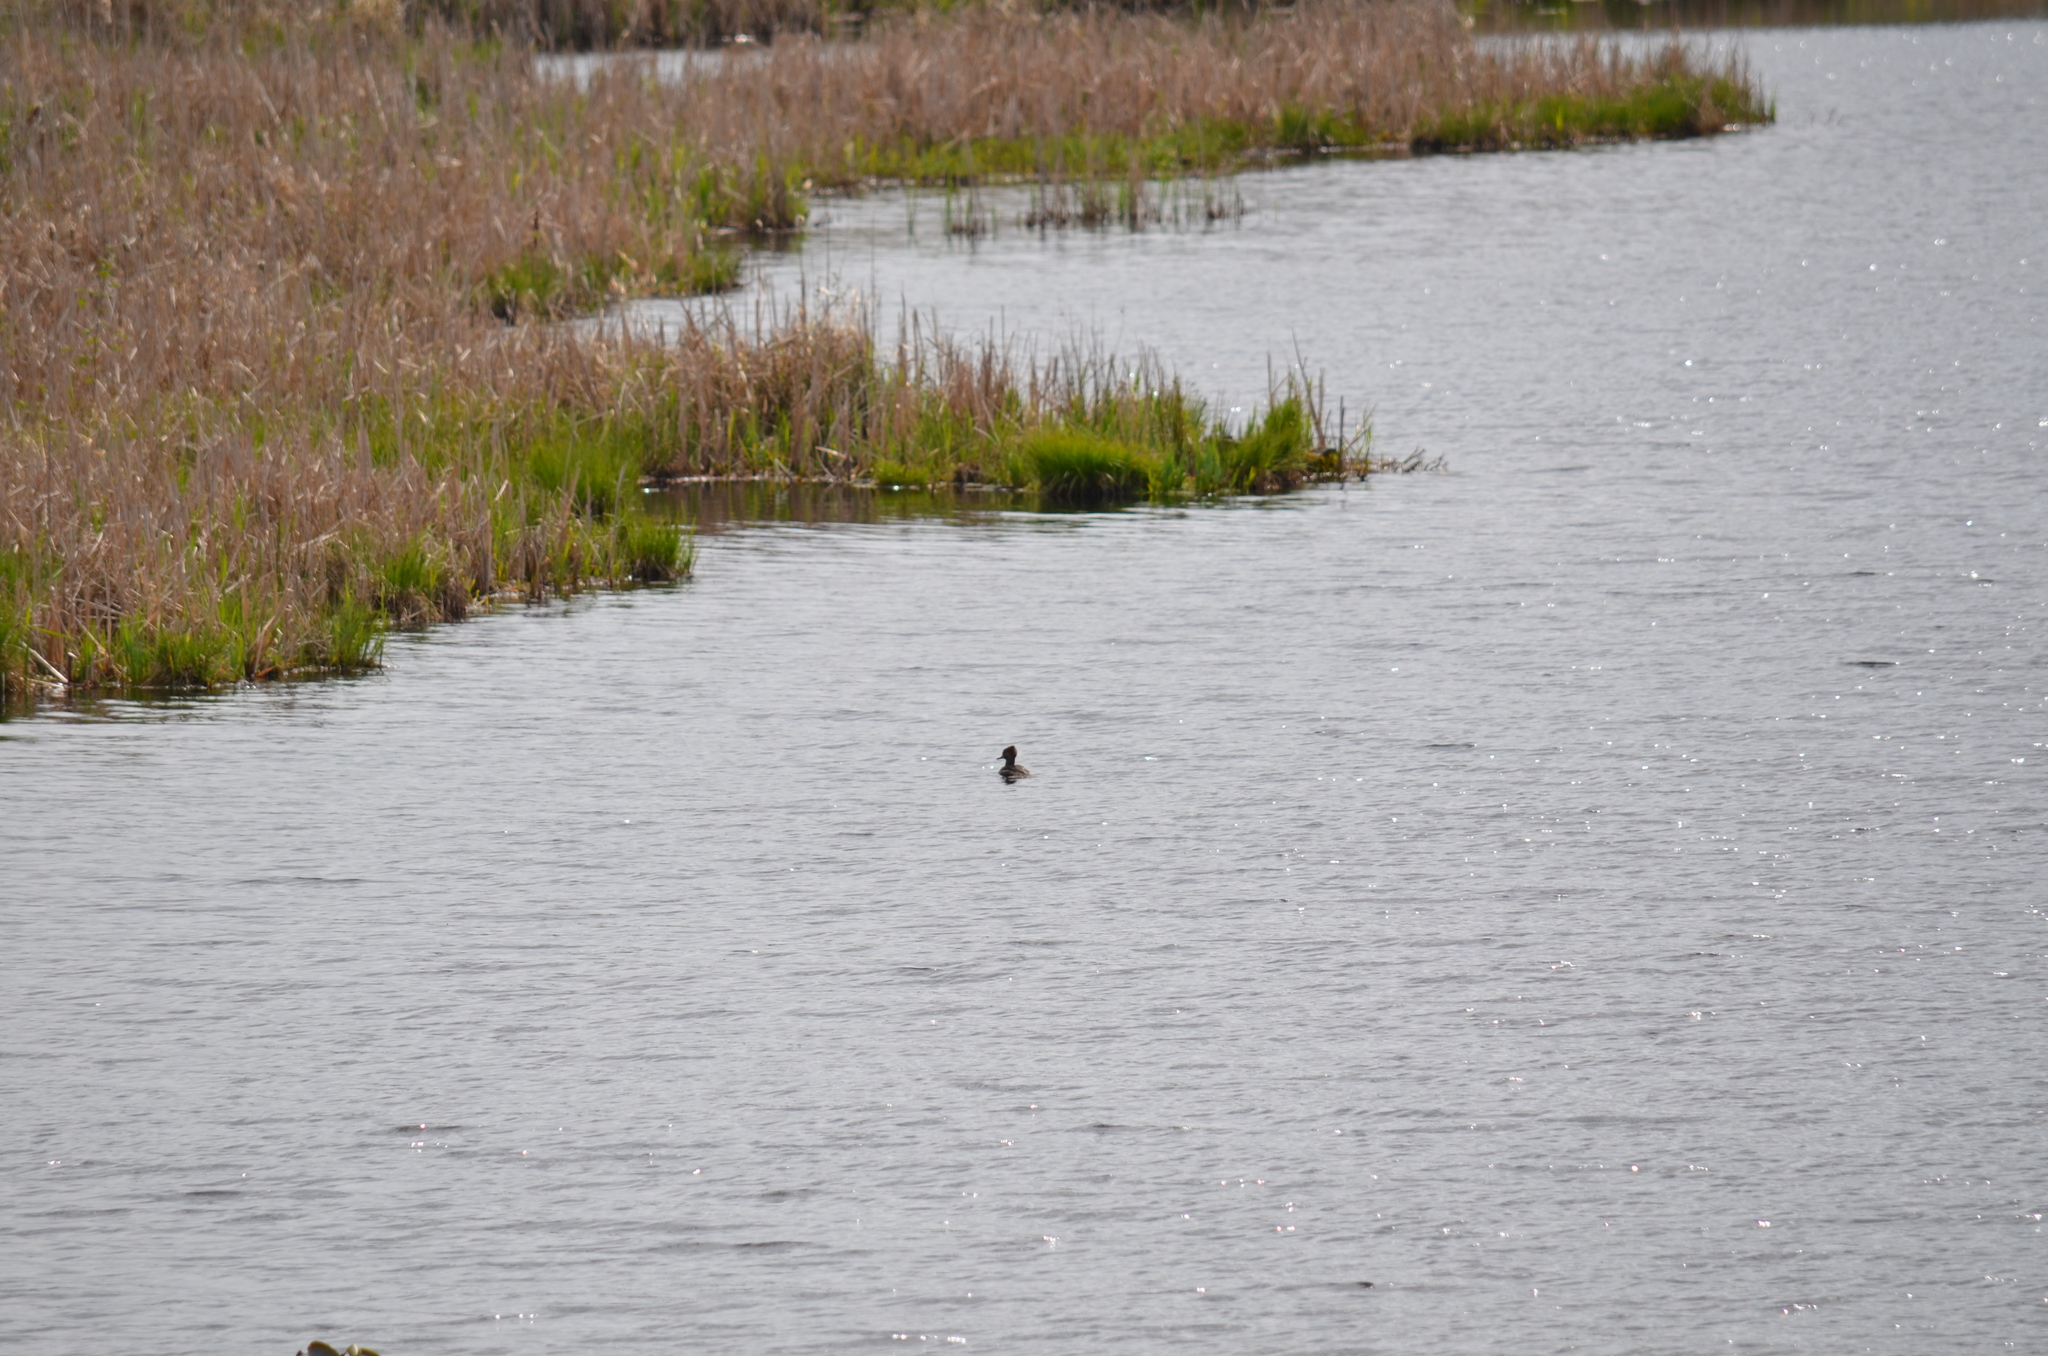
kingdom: Animalia
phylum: Chordata
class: Aves
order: Anseriformes
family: Anatidae
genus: Lophodytes
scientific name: Lophodytes cucullatus
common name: Hooded merganser
